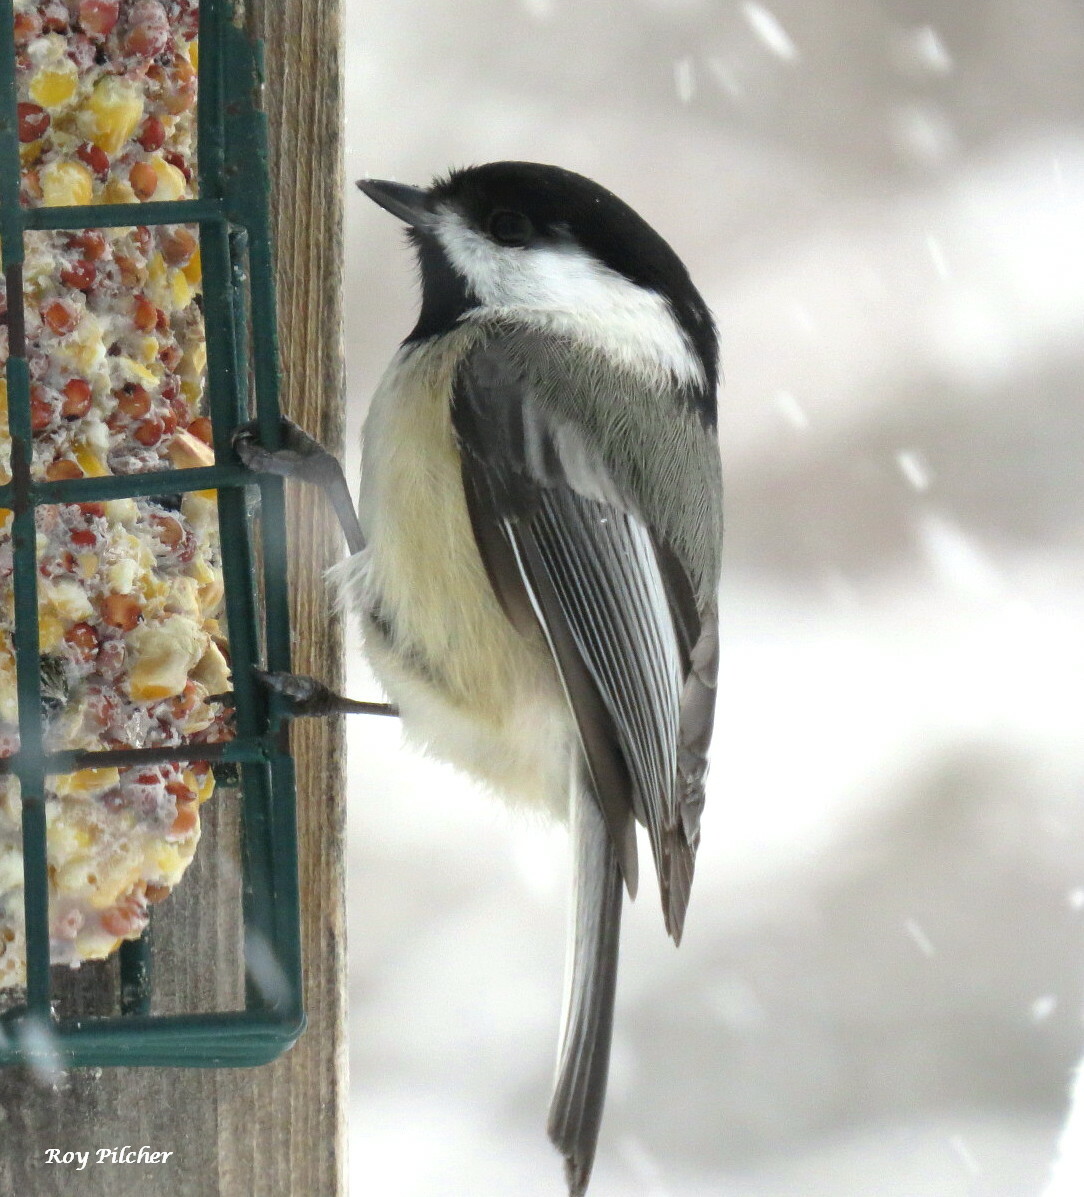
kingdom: Animalia
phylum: Chordata
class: Aves
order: Passeriformes
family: Paridae
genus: Poecile
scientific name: Poecile atricapillus
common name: Black-capped chickadee
